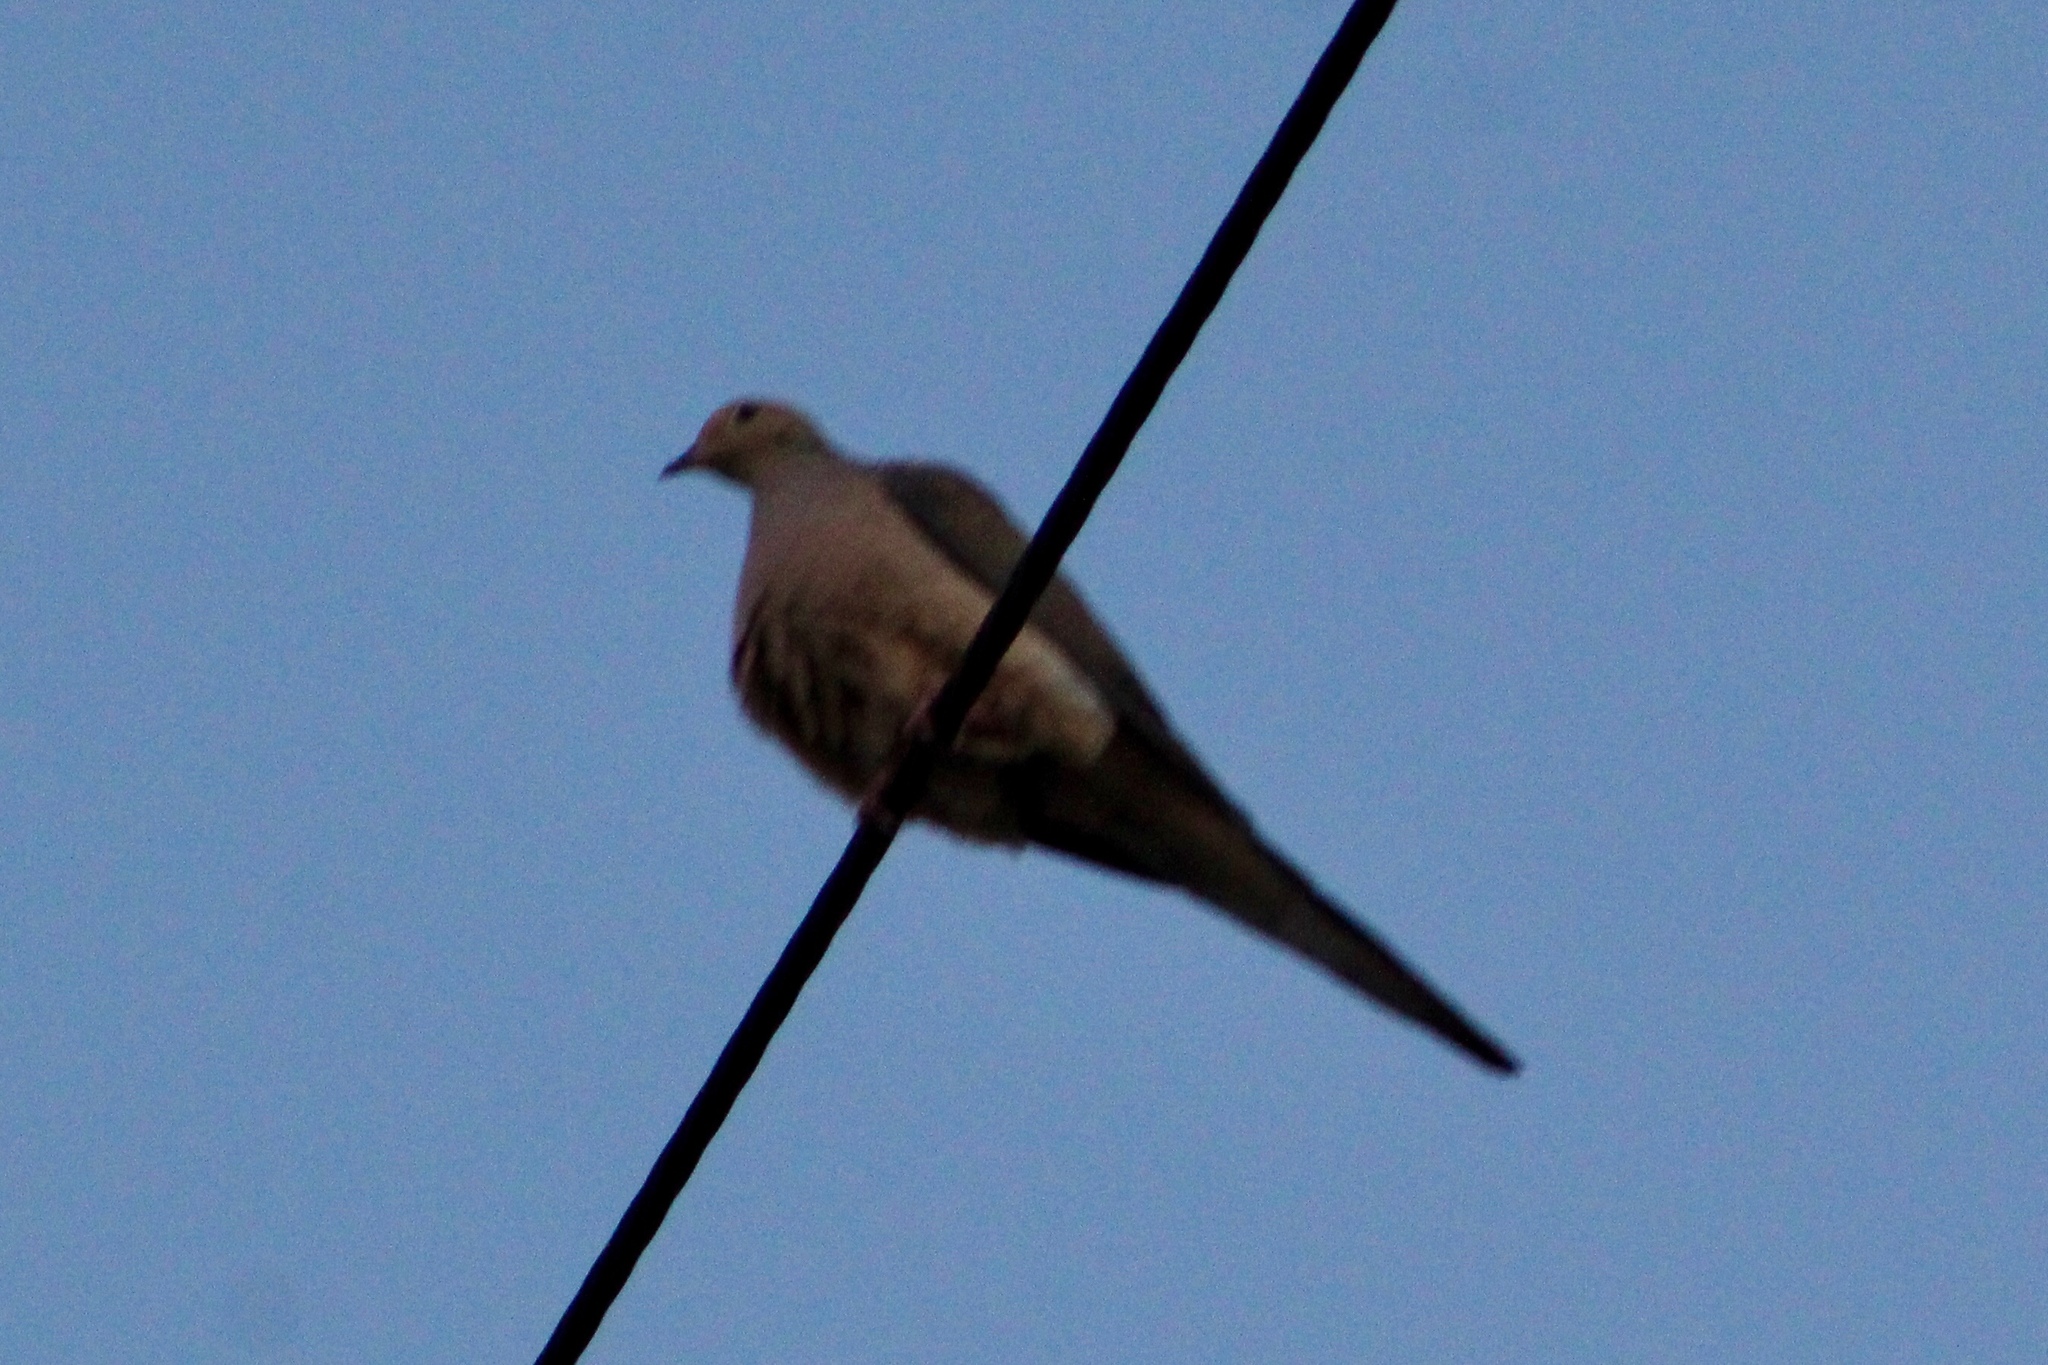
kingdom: Animalia
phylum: Chordata
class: Aves
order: Columbiformes
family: Columbidae
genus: Zenaida
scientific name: Zenaida macroura
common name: Mourning dove
